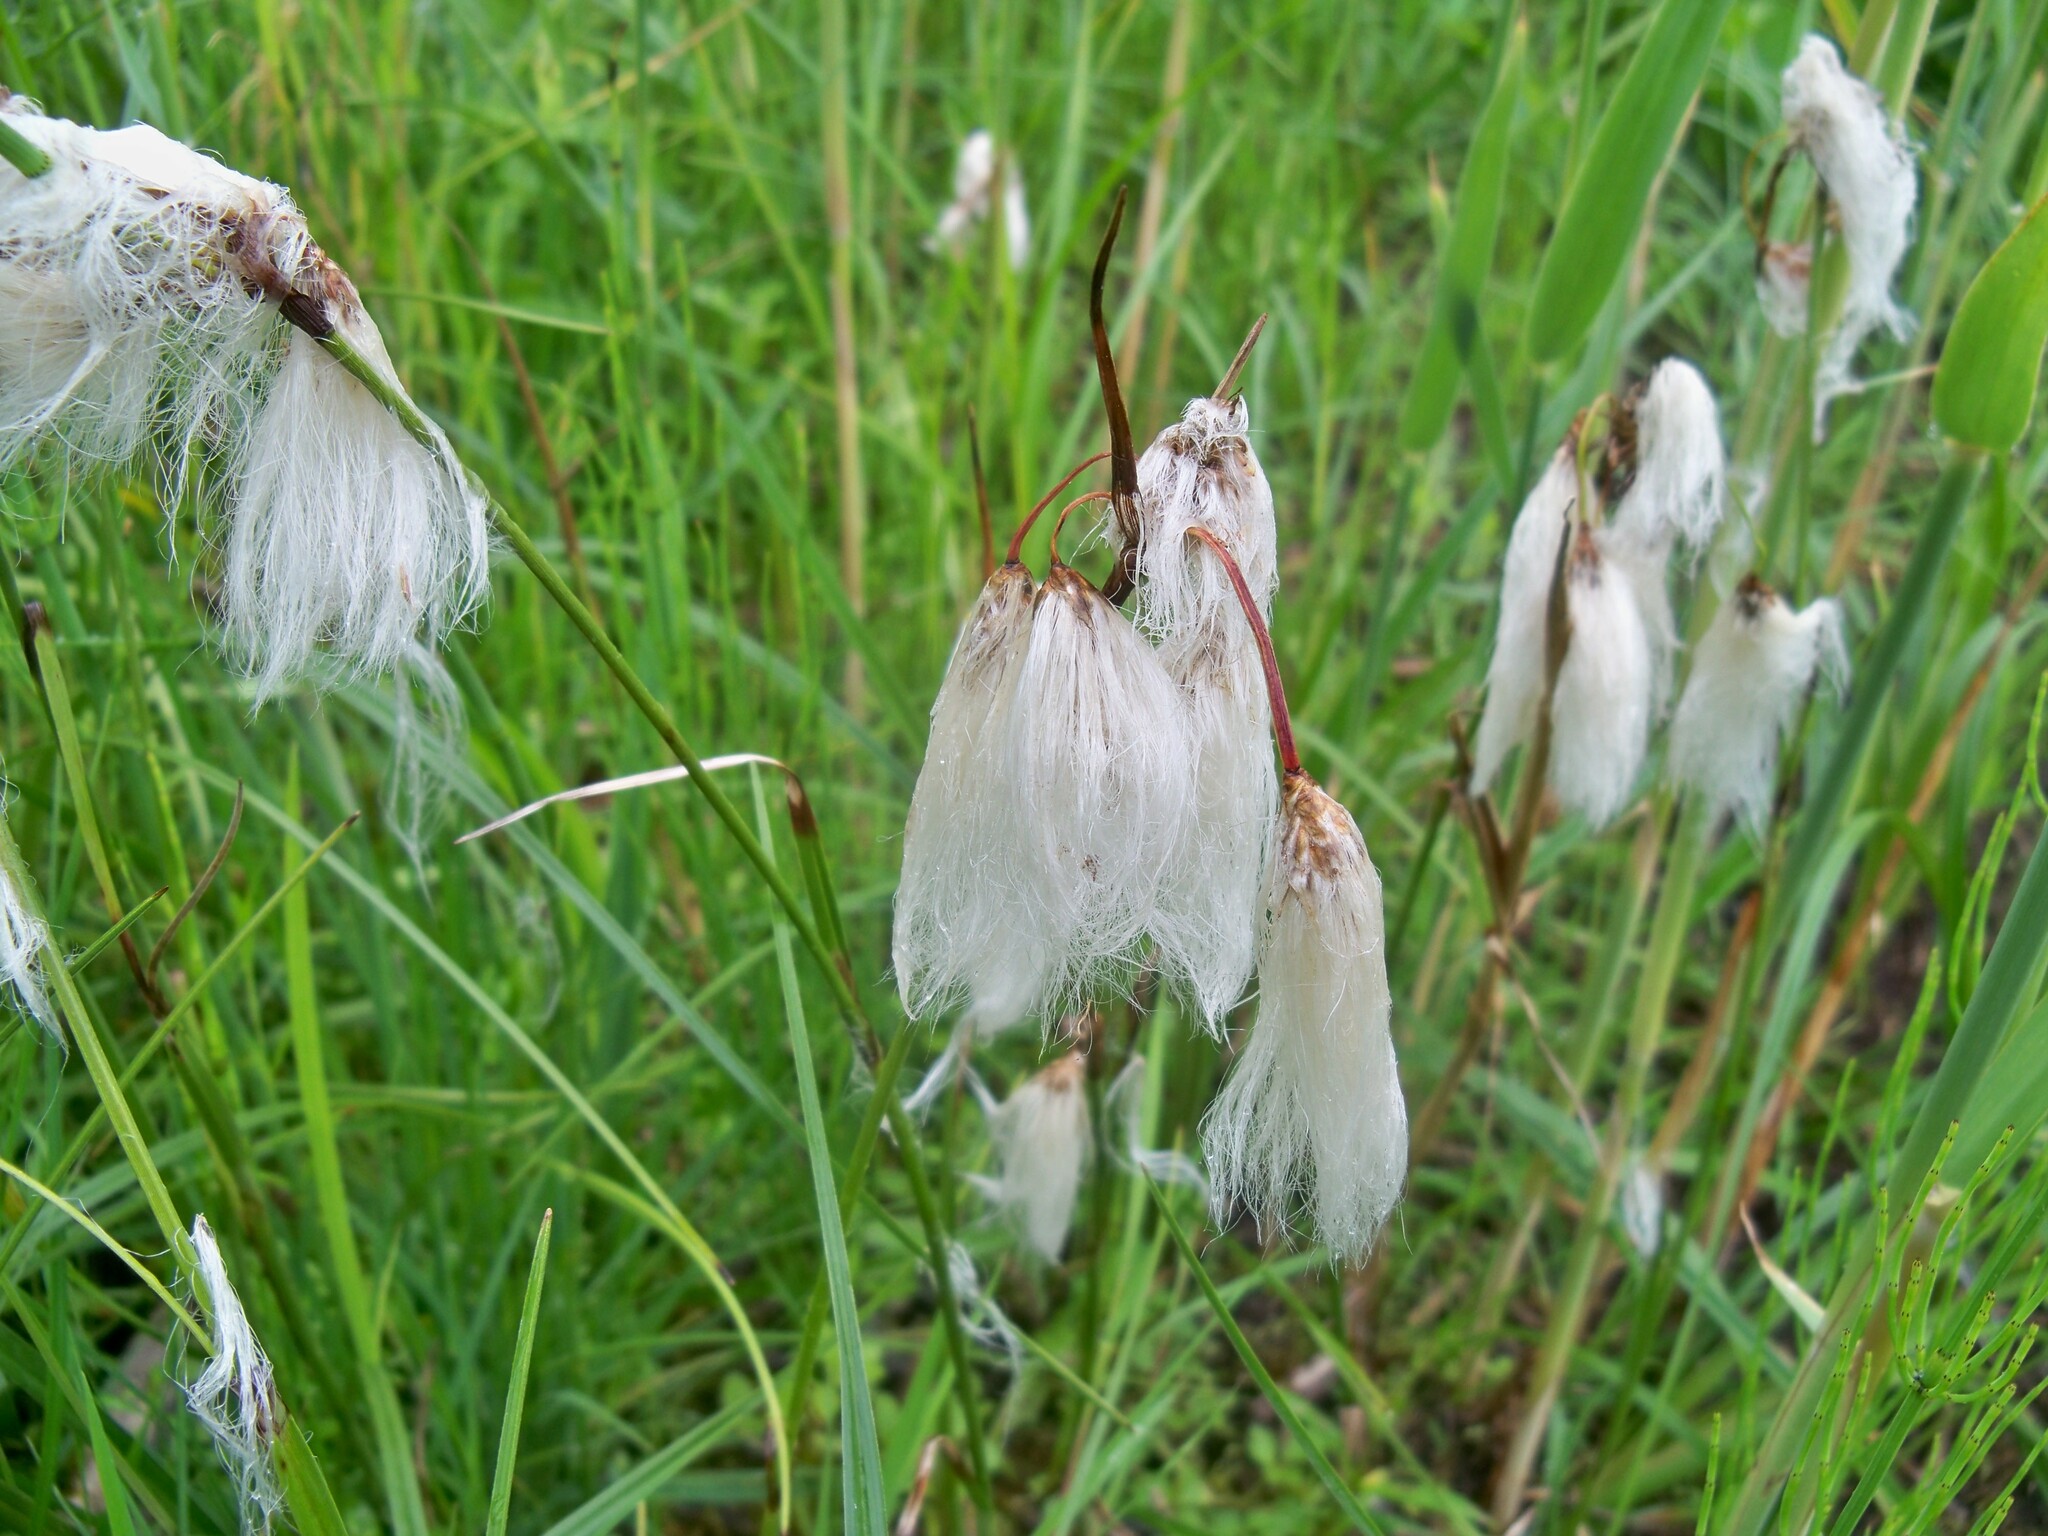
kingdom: Plantae
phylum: Tracheophyta
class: Liliopsida
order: Poales
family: Cyperaceae
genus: Eriophorum
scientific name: Eriophorum angustifolium
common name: Common cottongrass
